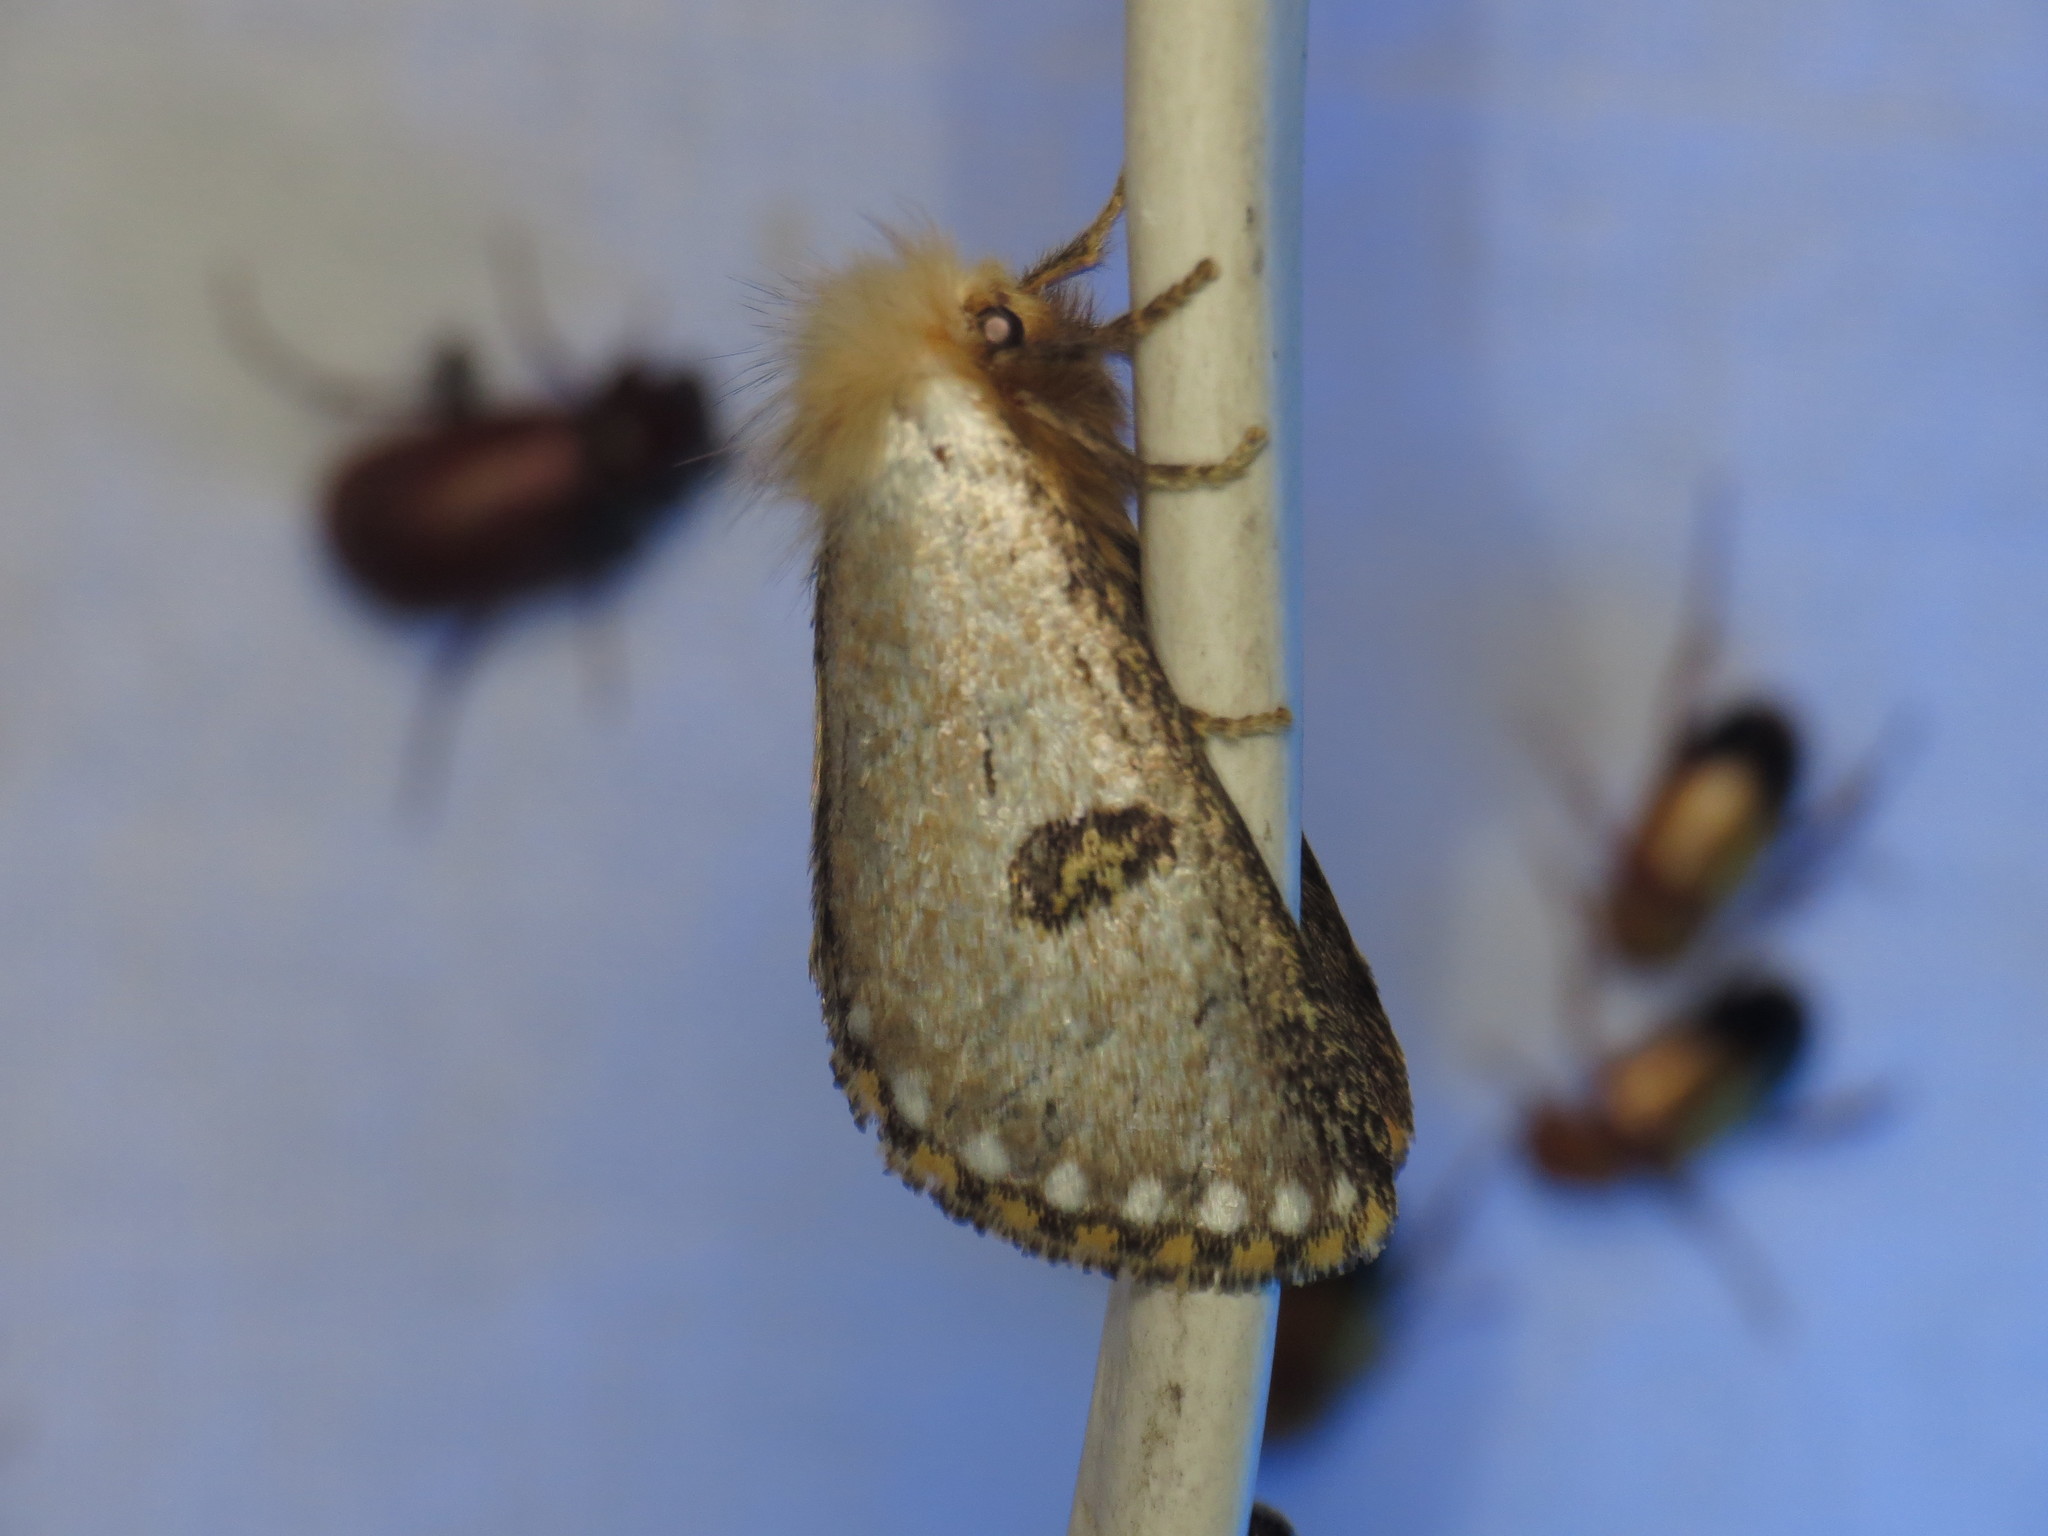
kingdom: Animalia
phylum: Arthropoda
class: Insecta
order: Lepidoptera
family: Notodontidae
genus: Epicoma
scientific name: Epicoma tristis
